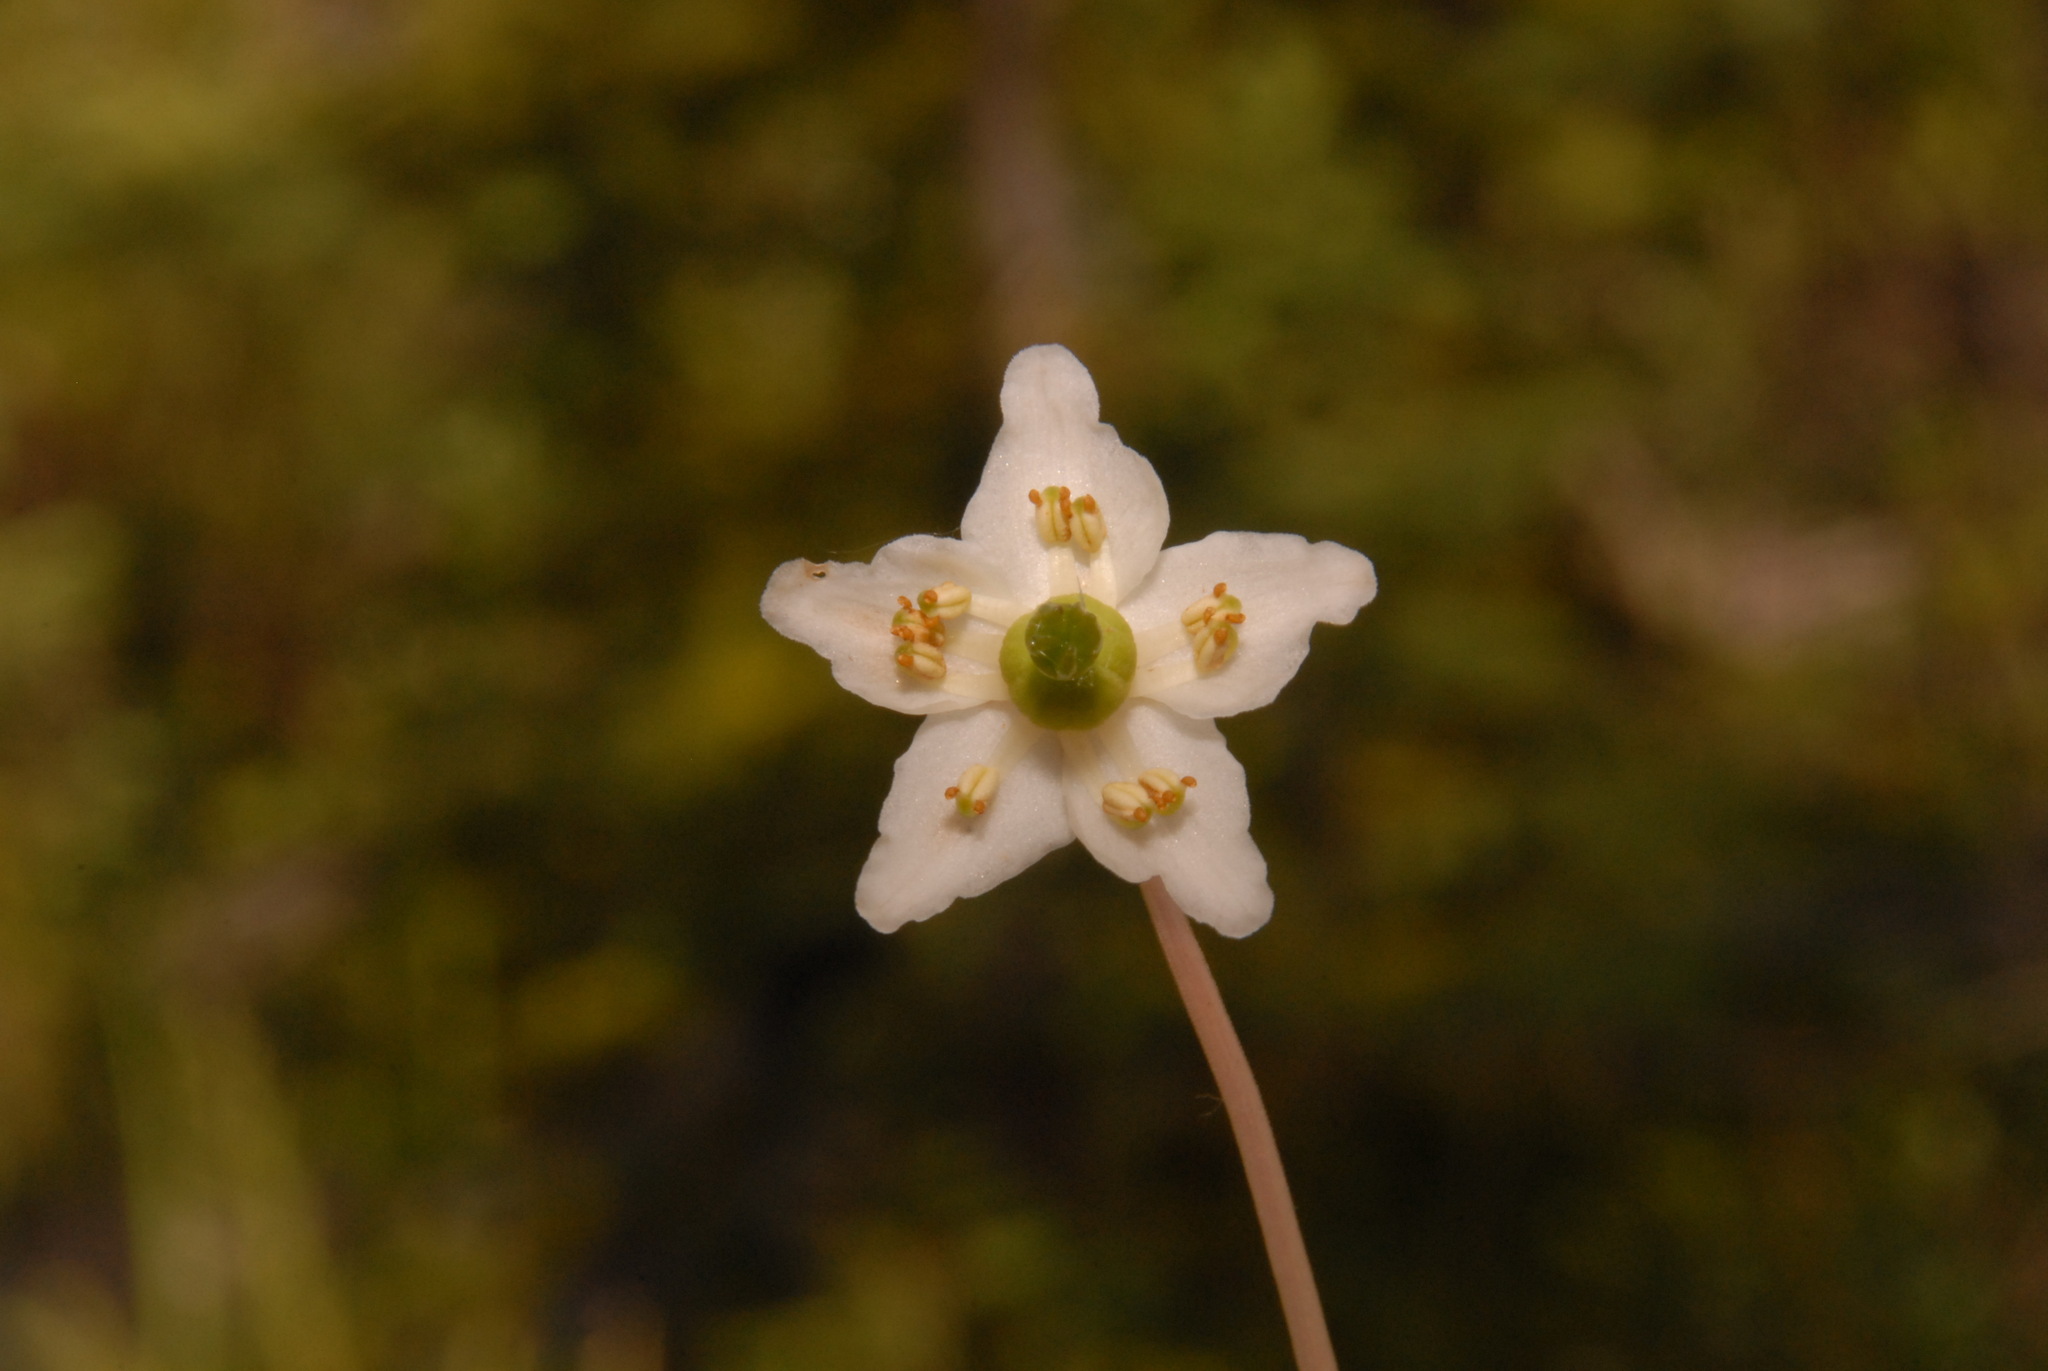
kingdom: Plantae
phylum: Tracheophyta
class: Magnoliopsida
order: Ericales
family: Ericaceae
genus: Moneses
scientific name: Moneses uniflora
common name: One-flowered wintergreen
